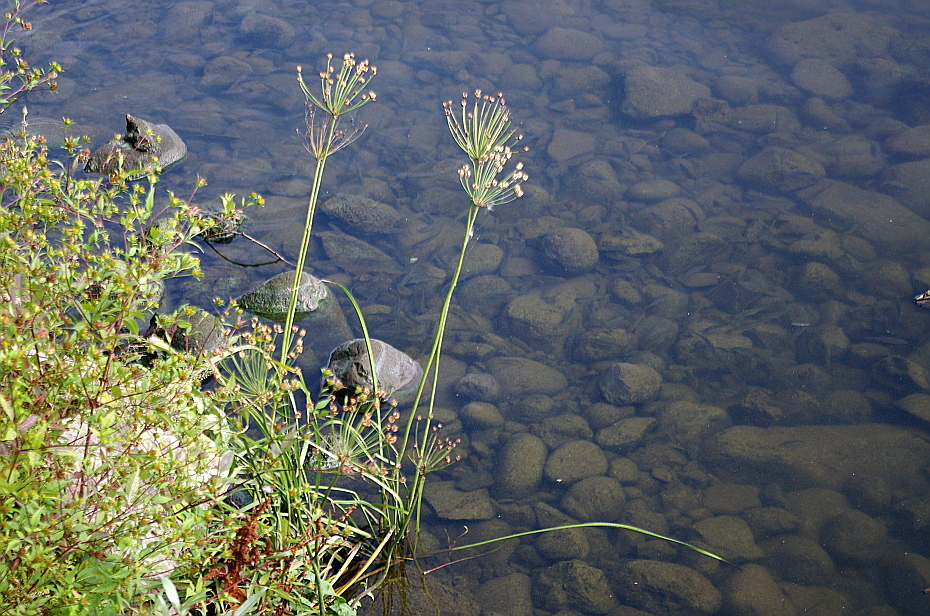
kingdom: Plantae
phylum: Tracheophyta
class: Liliopsida
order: Alismatales
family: Butomaceae
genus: Butomus
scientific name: Butomus umbellatus
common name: Flowering-rush
